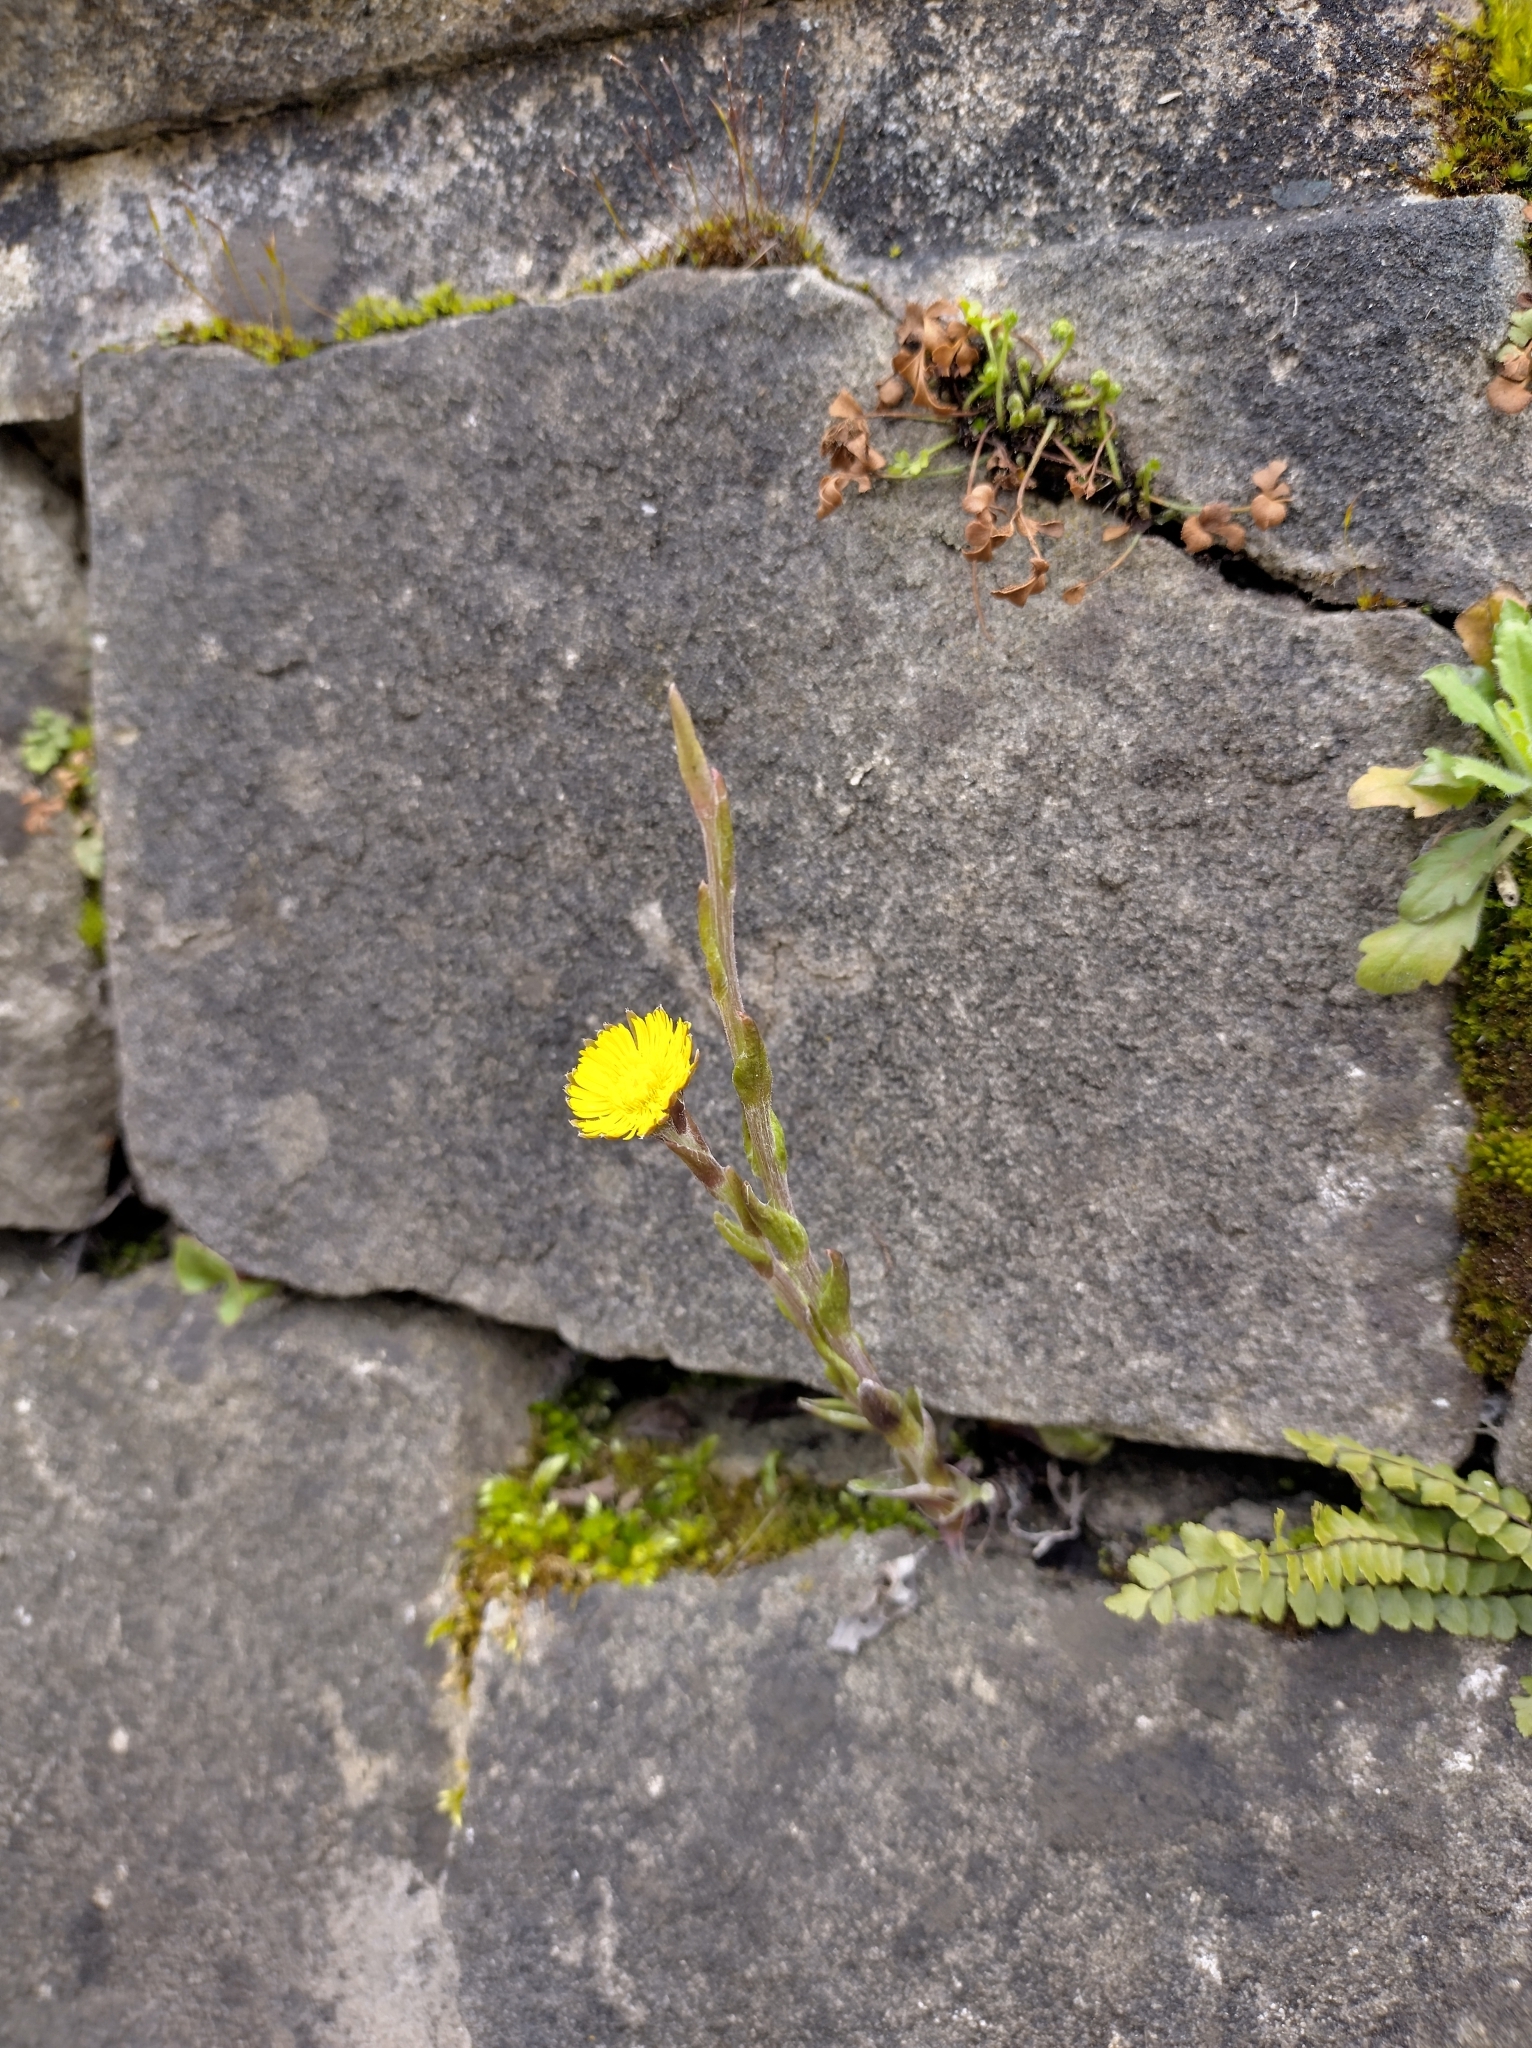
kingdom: Plantae
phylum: Tracheophyta
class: Magnoliopsida
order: Asterales
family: Asteraceae
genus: Tussilago
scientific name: Tussilago farfara
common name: Coltsfoot
